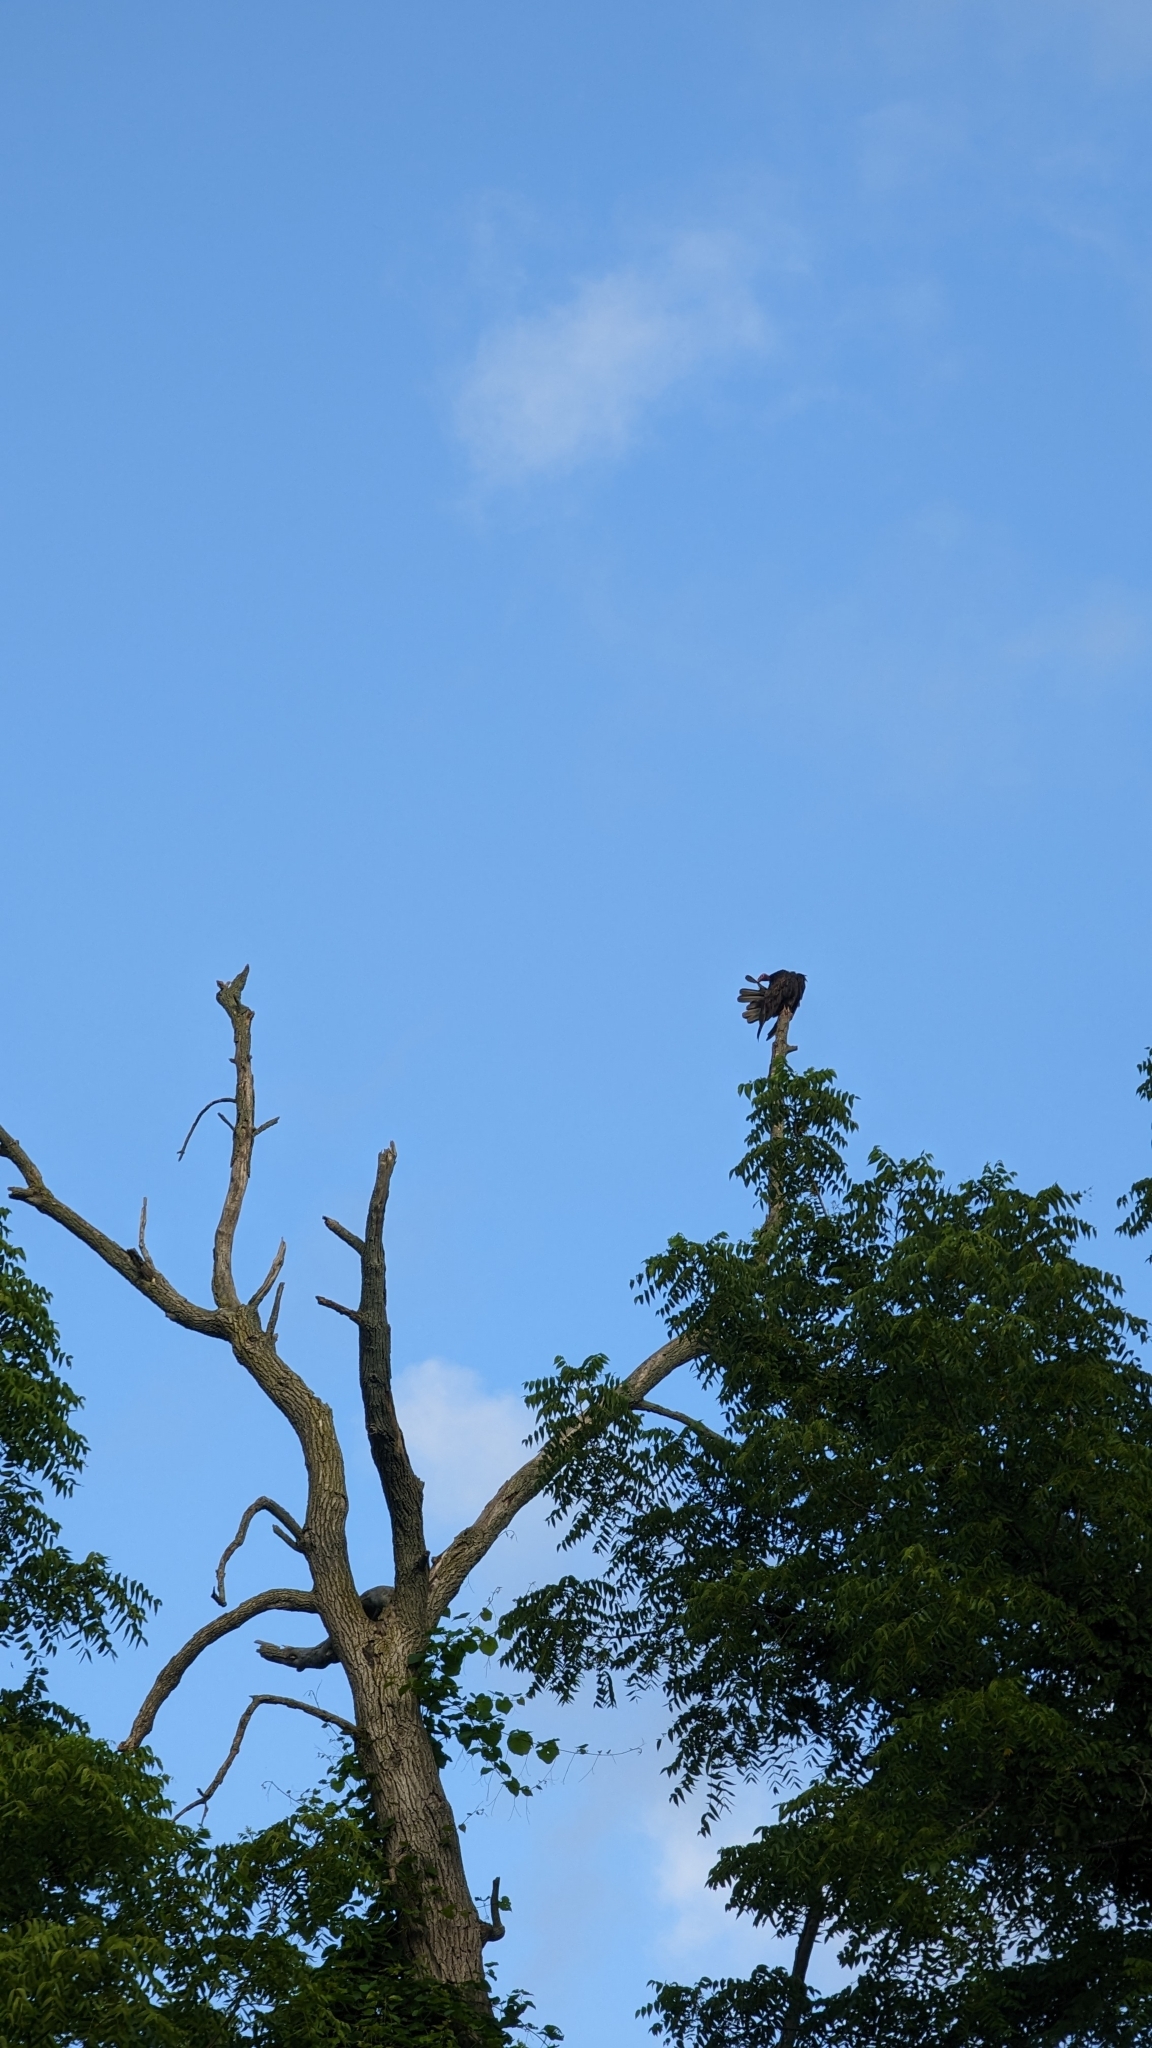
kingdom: Animalia
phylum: Chordata
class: Aves
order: Accipitriformes
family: Cathartidae
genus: Cathartes
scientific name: Cathartes aura
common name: Turkey vulture
